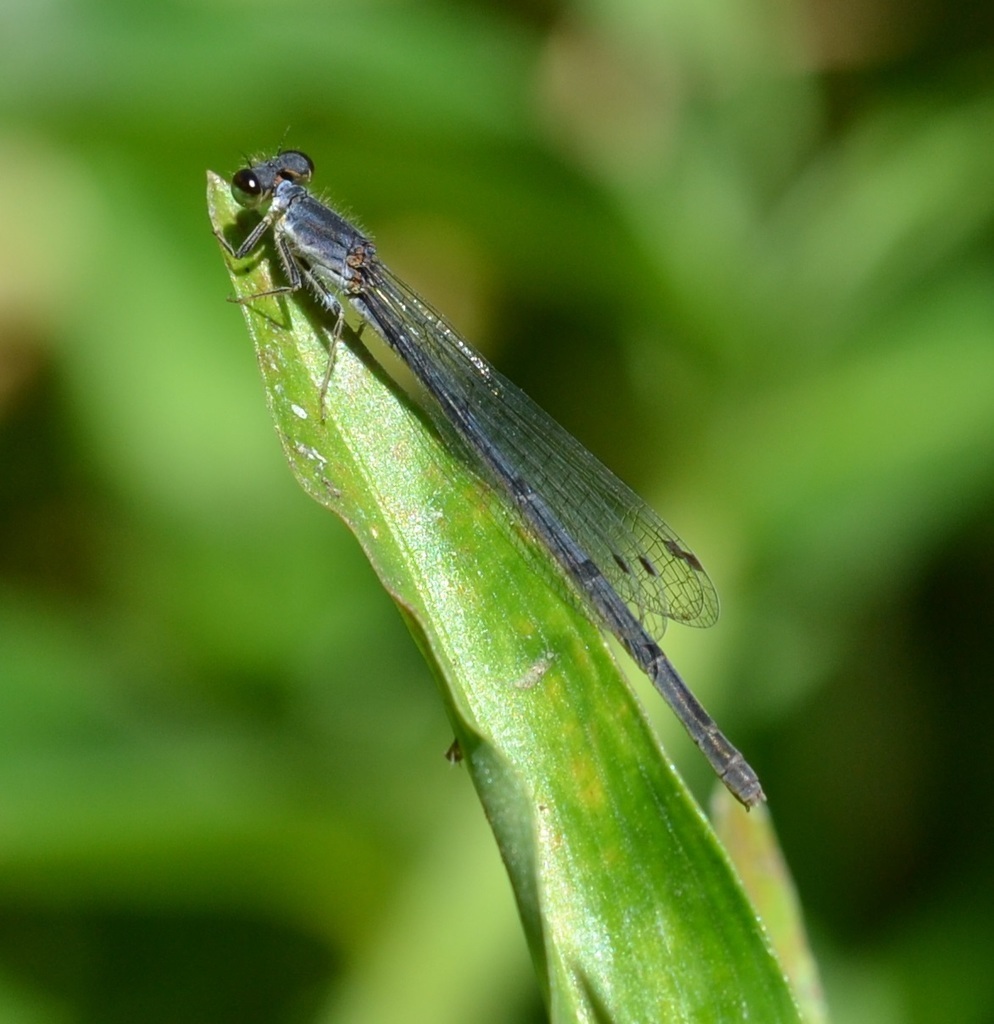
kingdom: Animalia
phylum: Arthropoda
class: Insecta
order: Odonata
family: Coenagrionidae
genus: Ischnura
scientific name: Ischnura posita
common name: Fragile forktail
